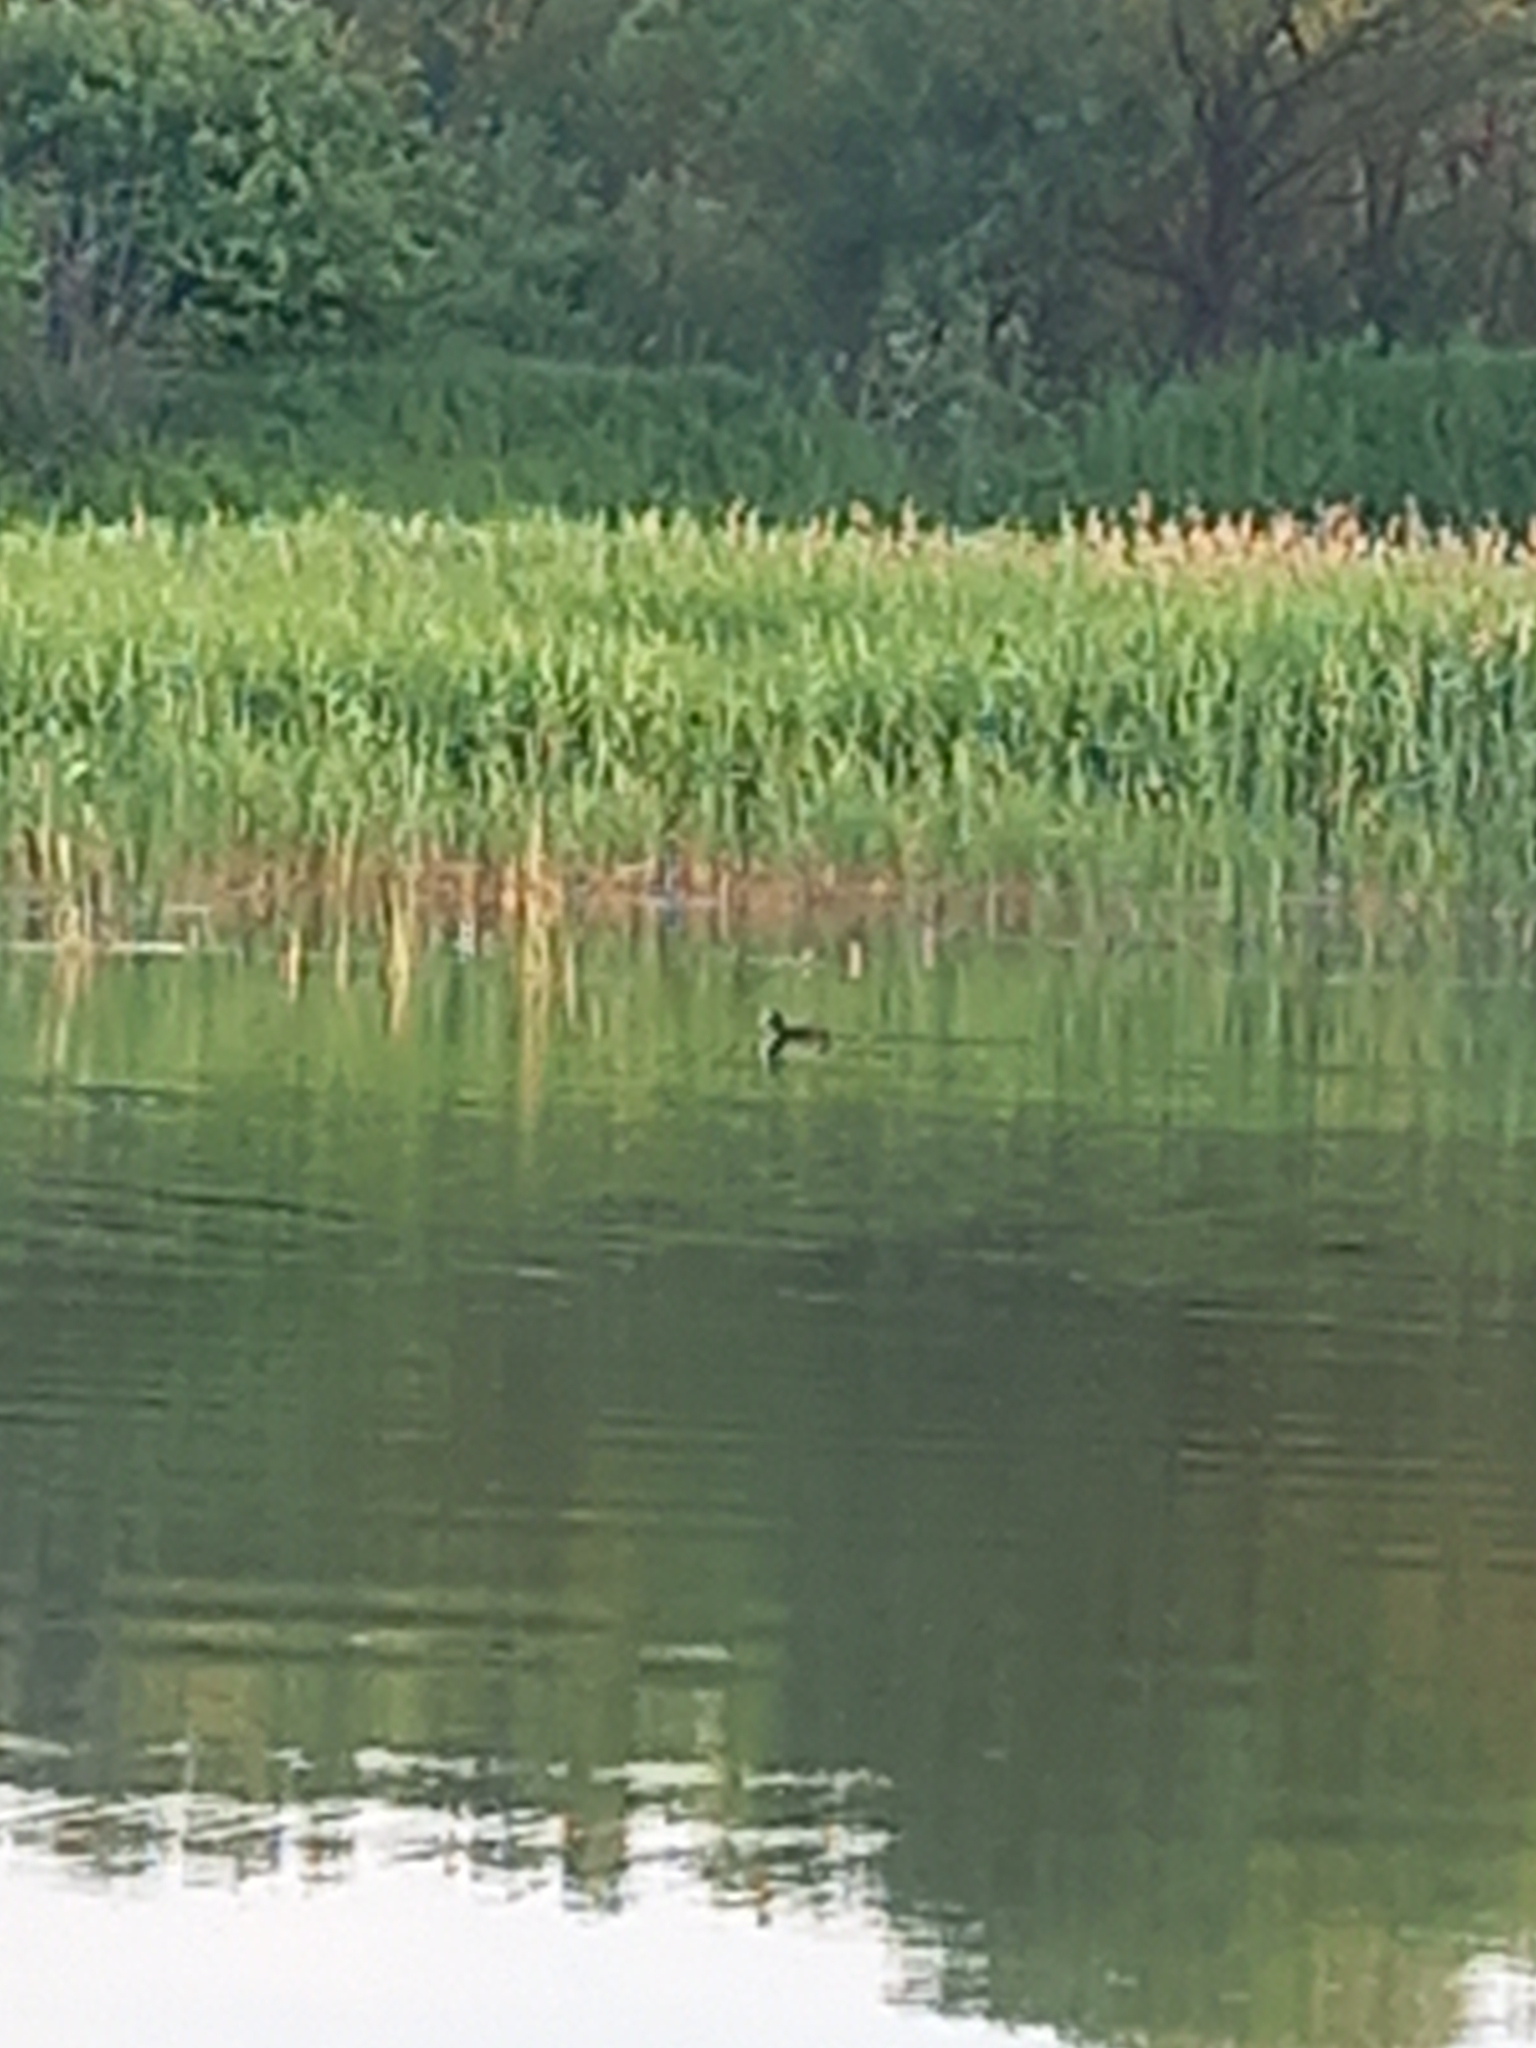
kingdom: Animalia
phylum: Chordata
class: Aves
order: Gruiformes
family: Rallidae
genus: Fulica
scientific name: Fulica atra
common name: Eurasian coot
